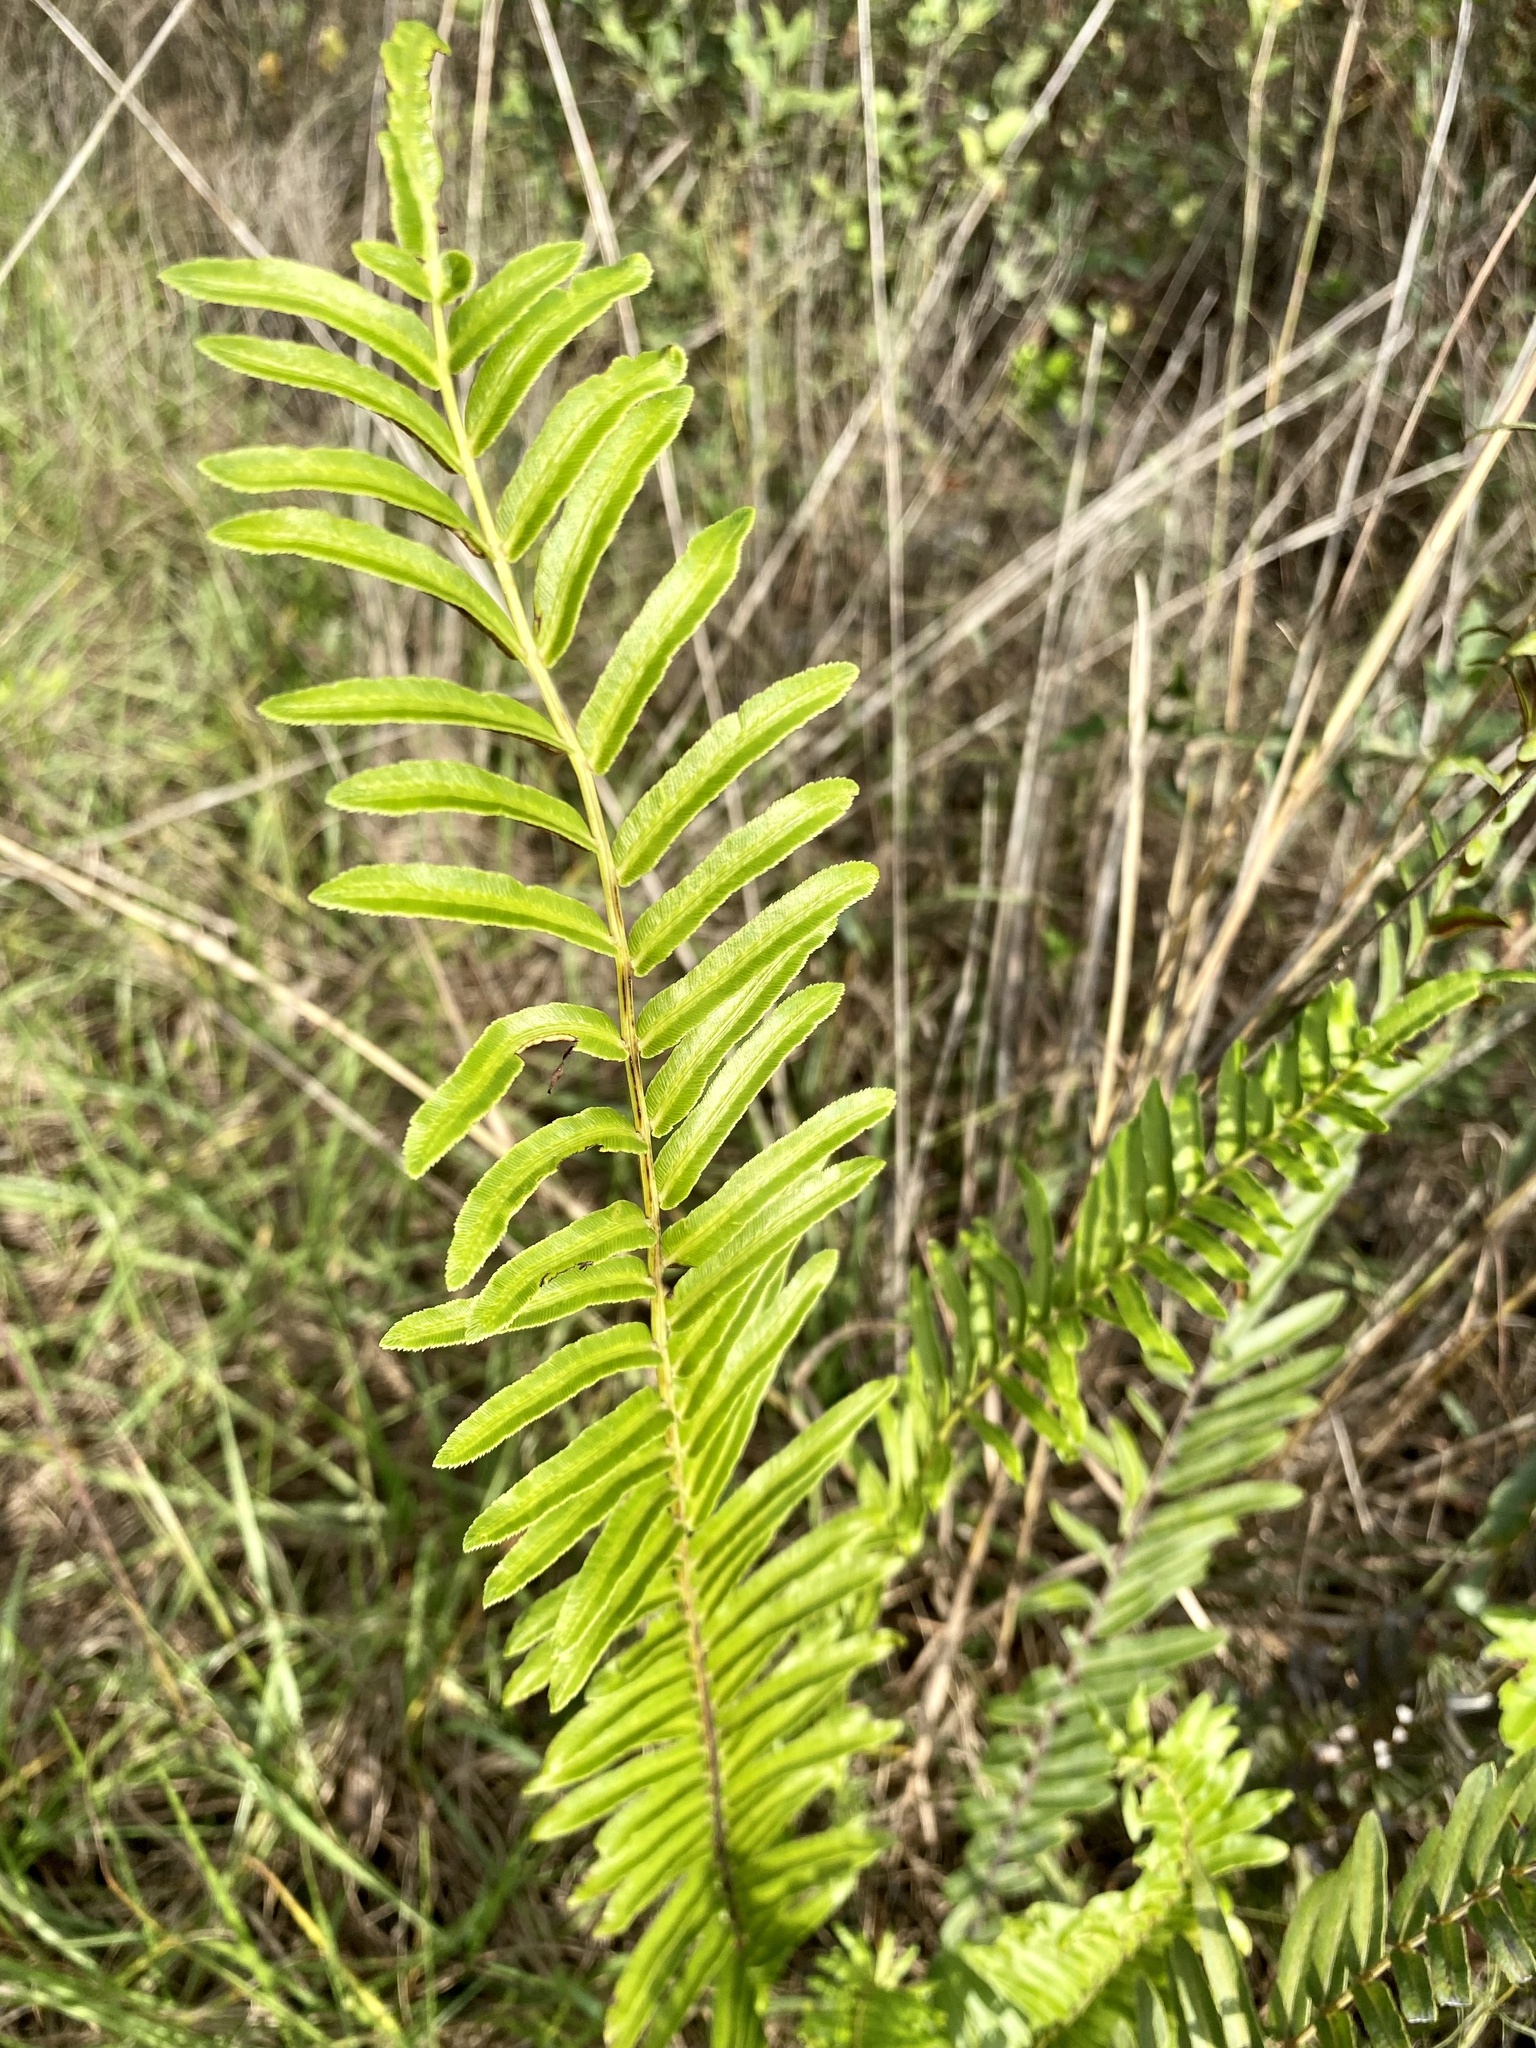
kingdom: Plantae
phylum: Tracheophyta
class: Polypodiopsida
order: Polypodiales
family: Blechnaceae
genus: Telmatoblechnum
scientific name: Telmatoblechnum serrulatum
